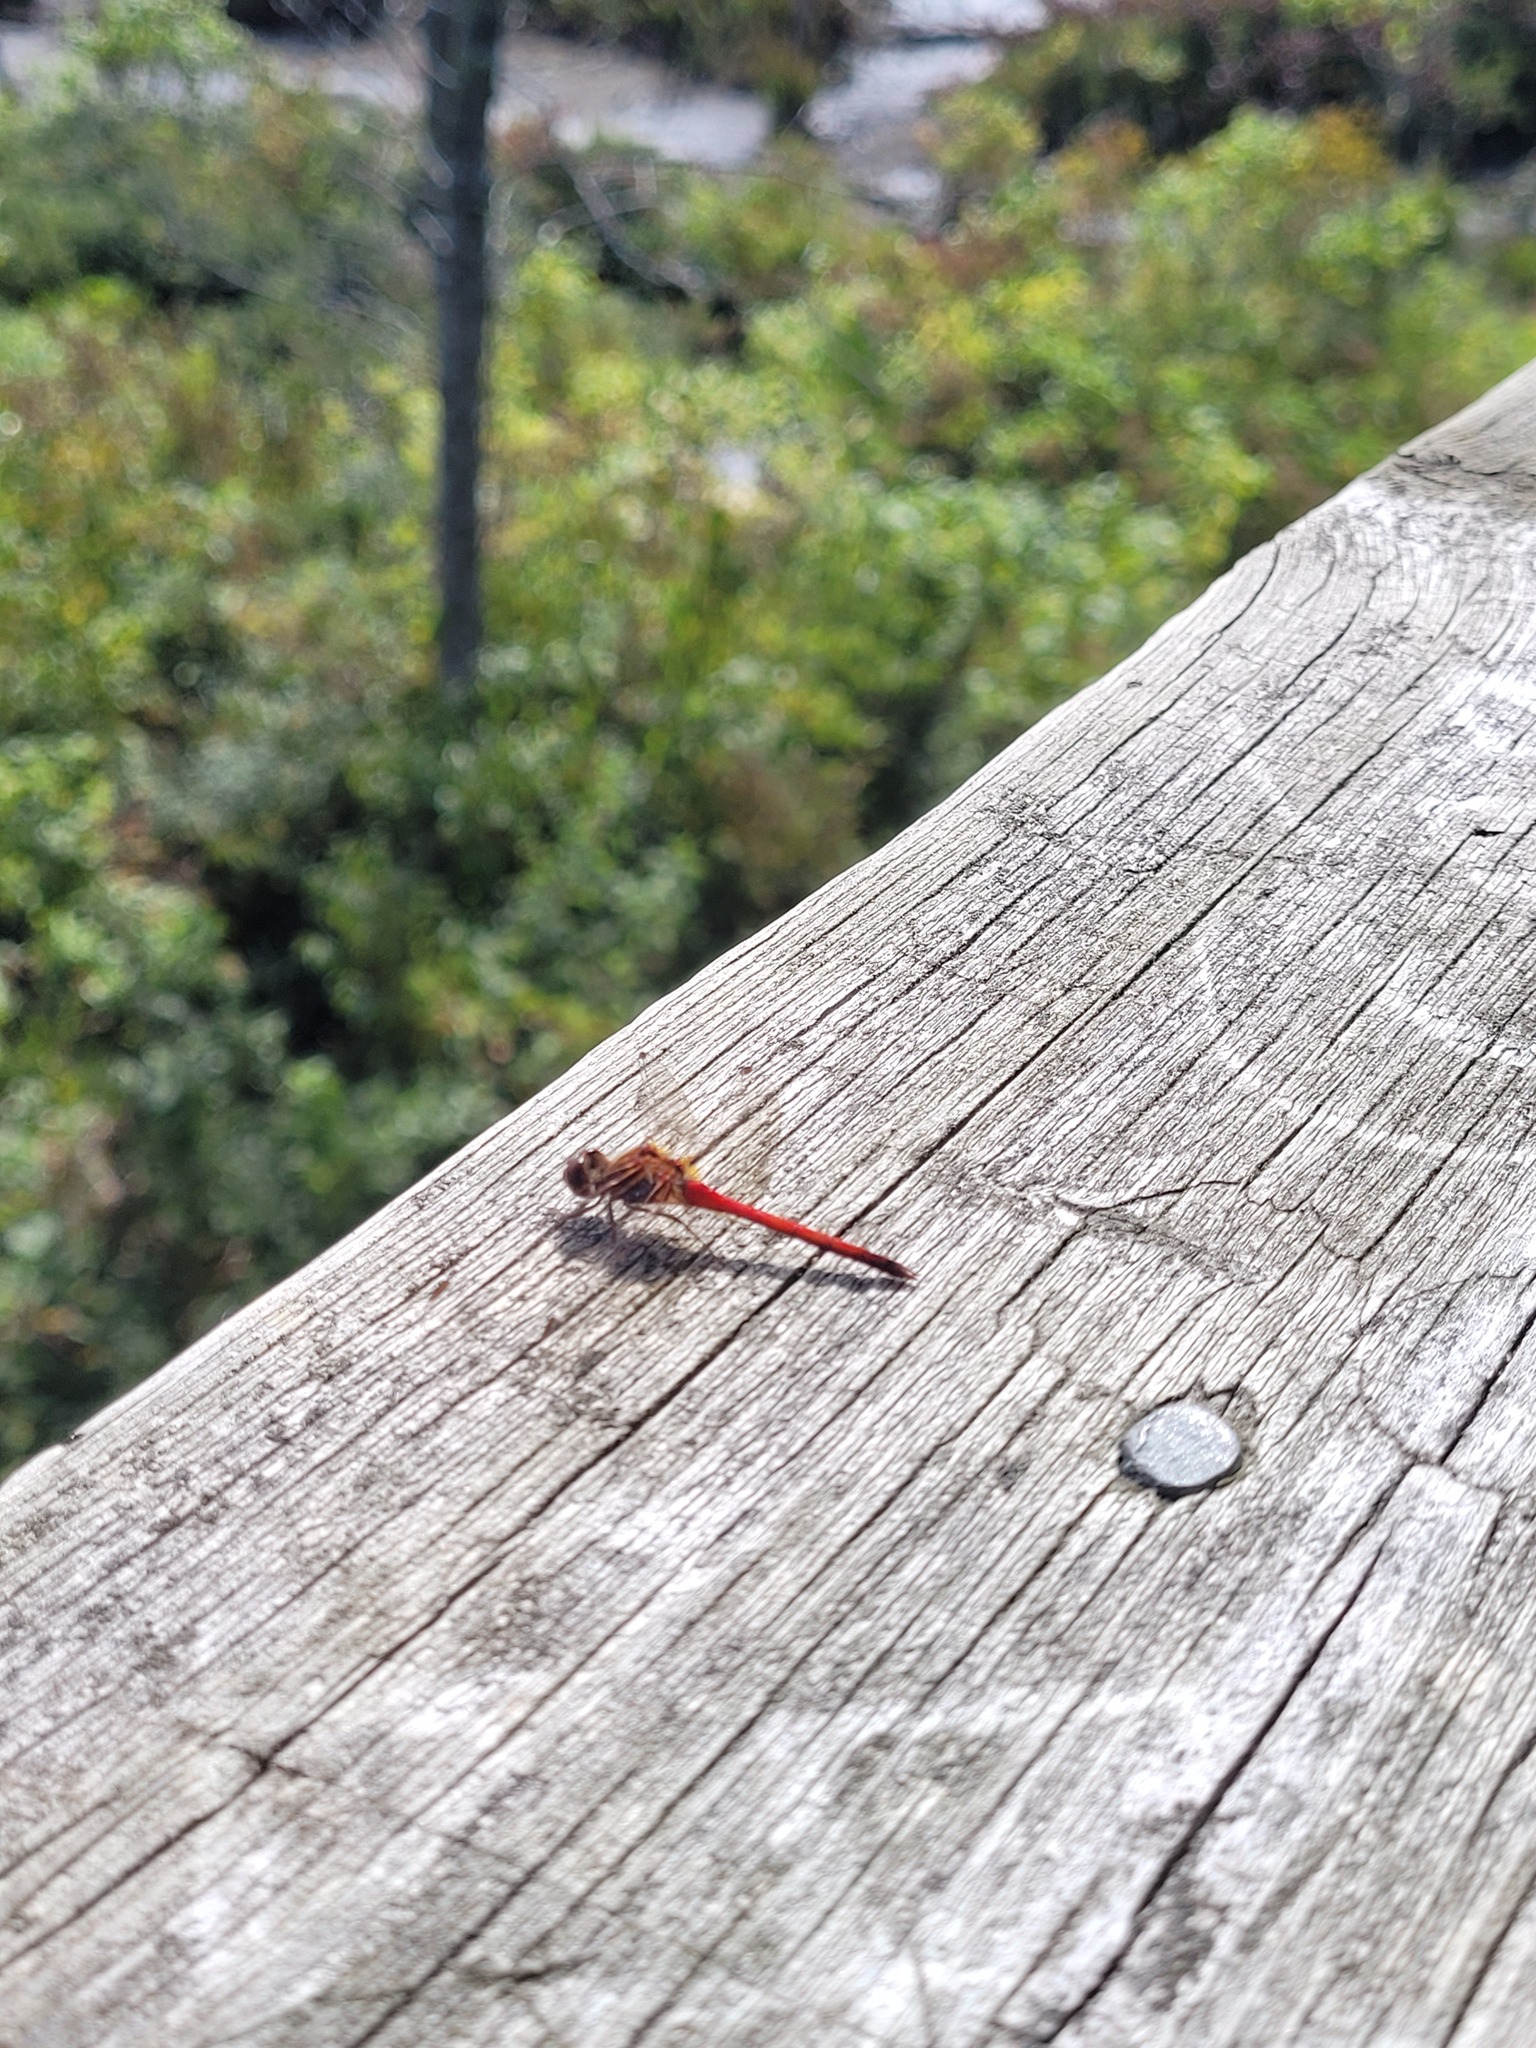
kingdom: Animalia
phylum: Arthropoda
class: Insecta
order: Odonata
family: Libellulidae
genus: Sympetrum
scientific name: Sympetrum vicinum
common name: Autumn meadowhawk
